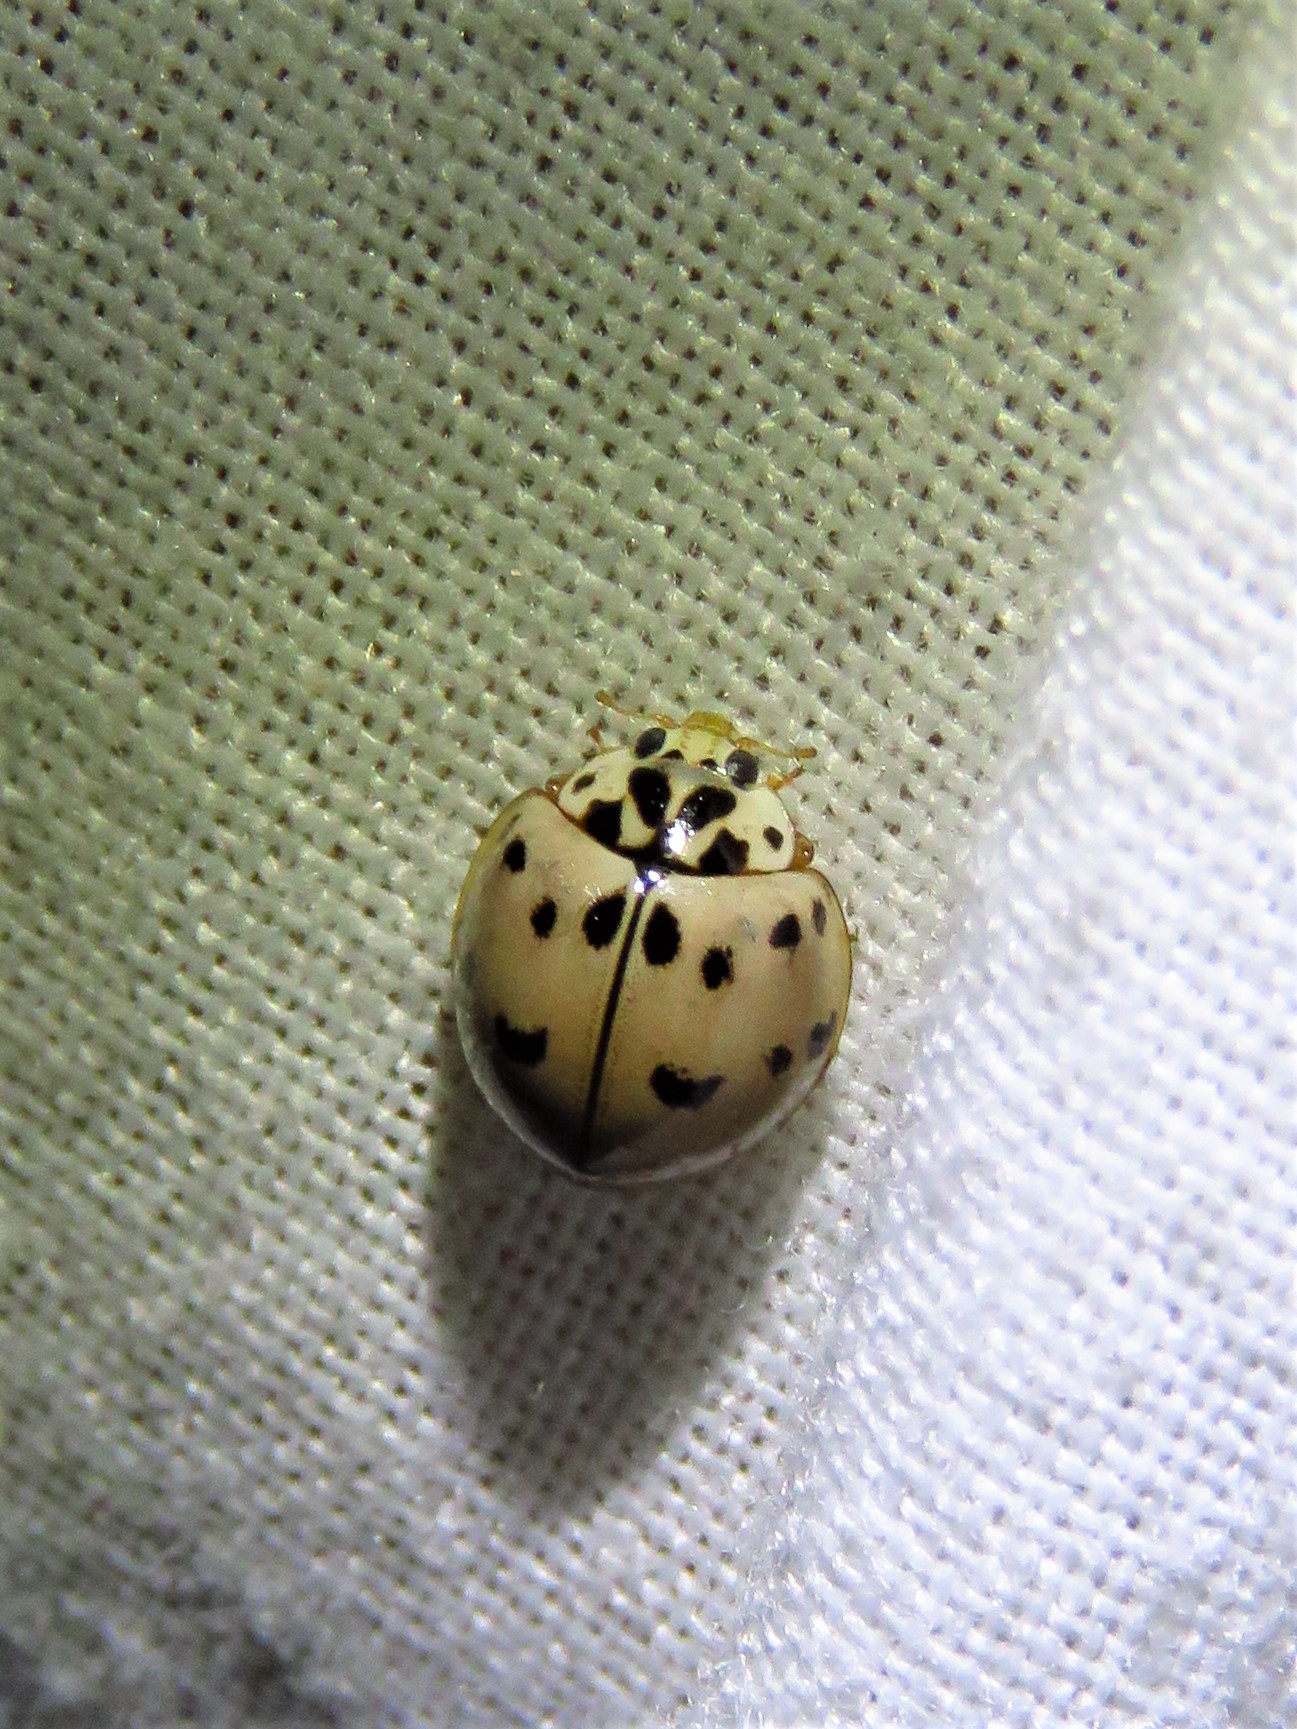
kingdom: Animalia
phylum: Arthropoda
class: Insecta
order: Coleoptera
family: Coccinellidae
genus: Olla
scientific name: Olla v-nigrum
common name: Ashy gray lady beetle
